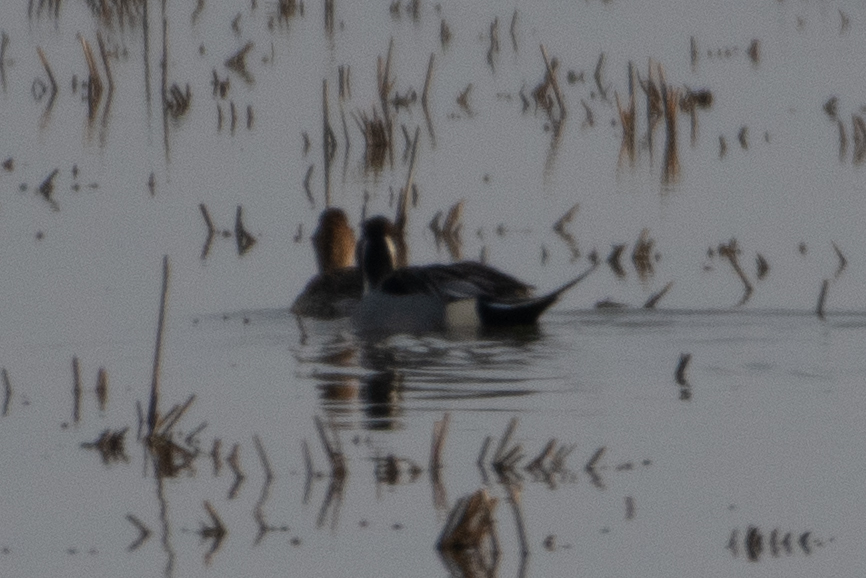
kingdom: Animalia
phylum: Chordata
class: Aves
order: Anseriformes
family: Anatidae
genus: Anas
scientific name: Anas acuta
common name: Northern pintail
